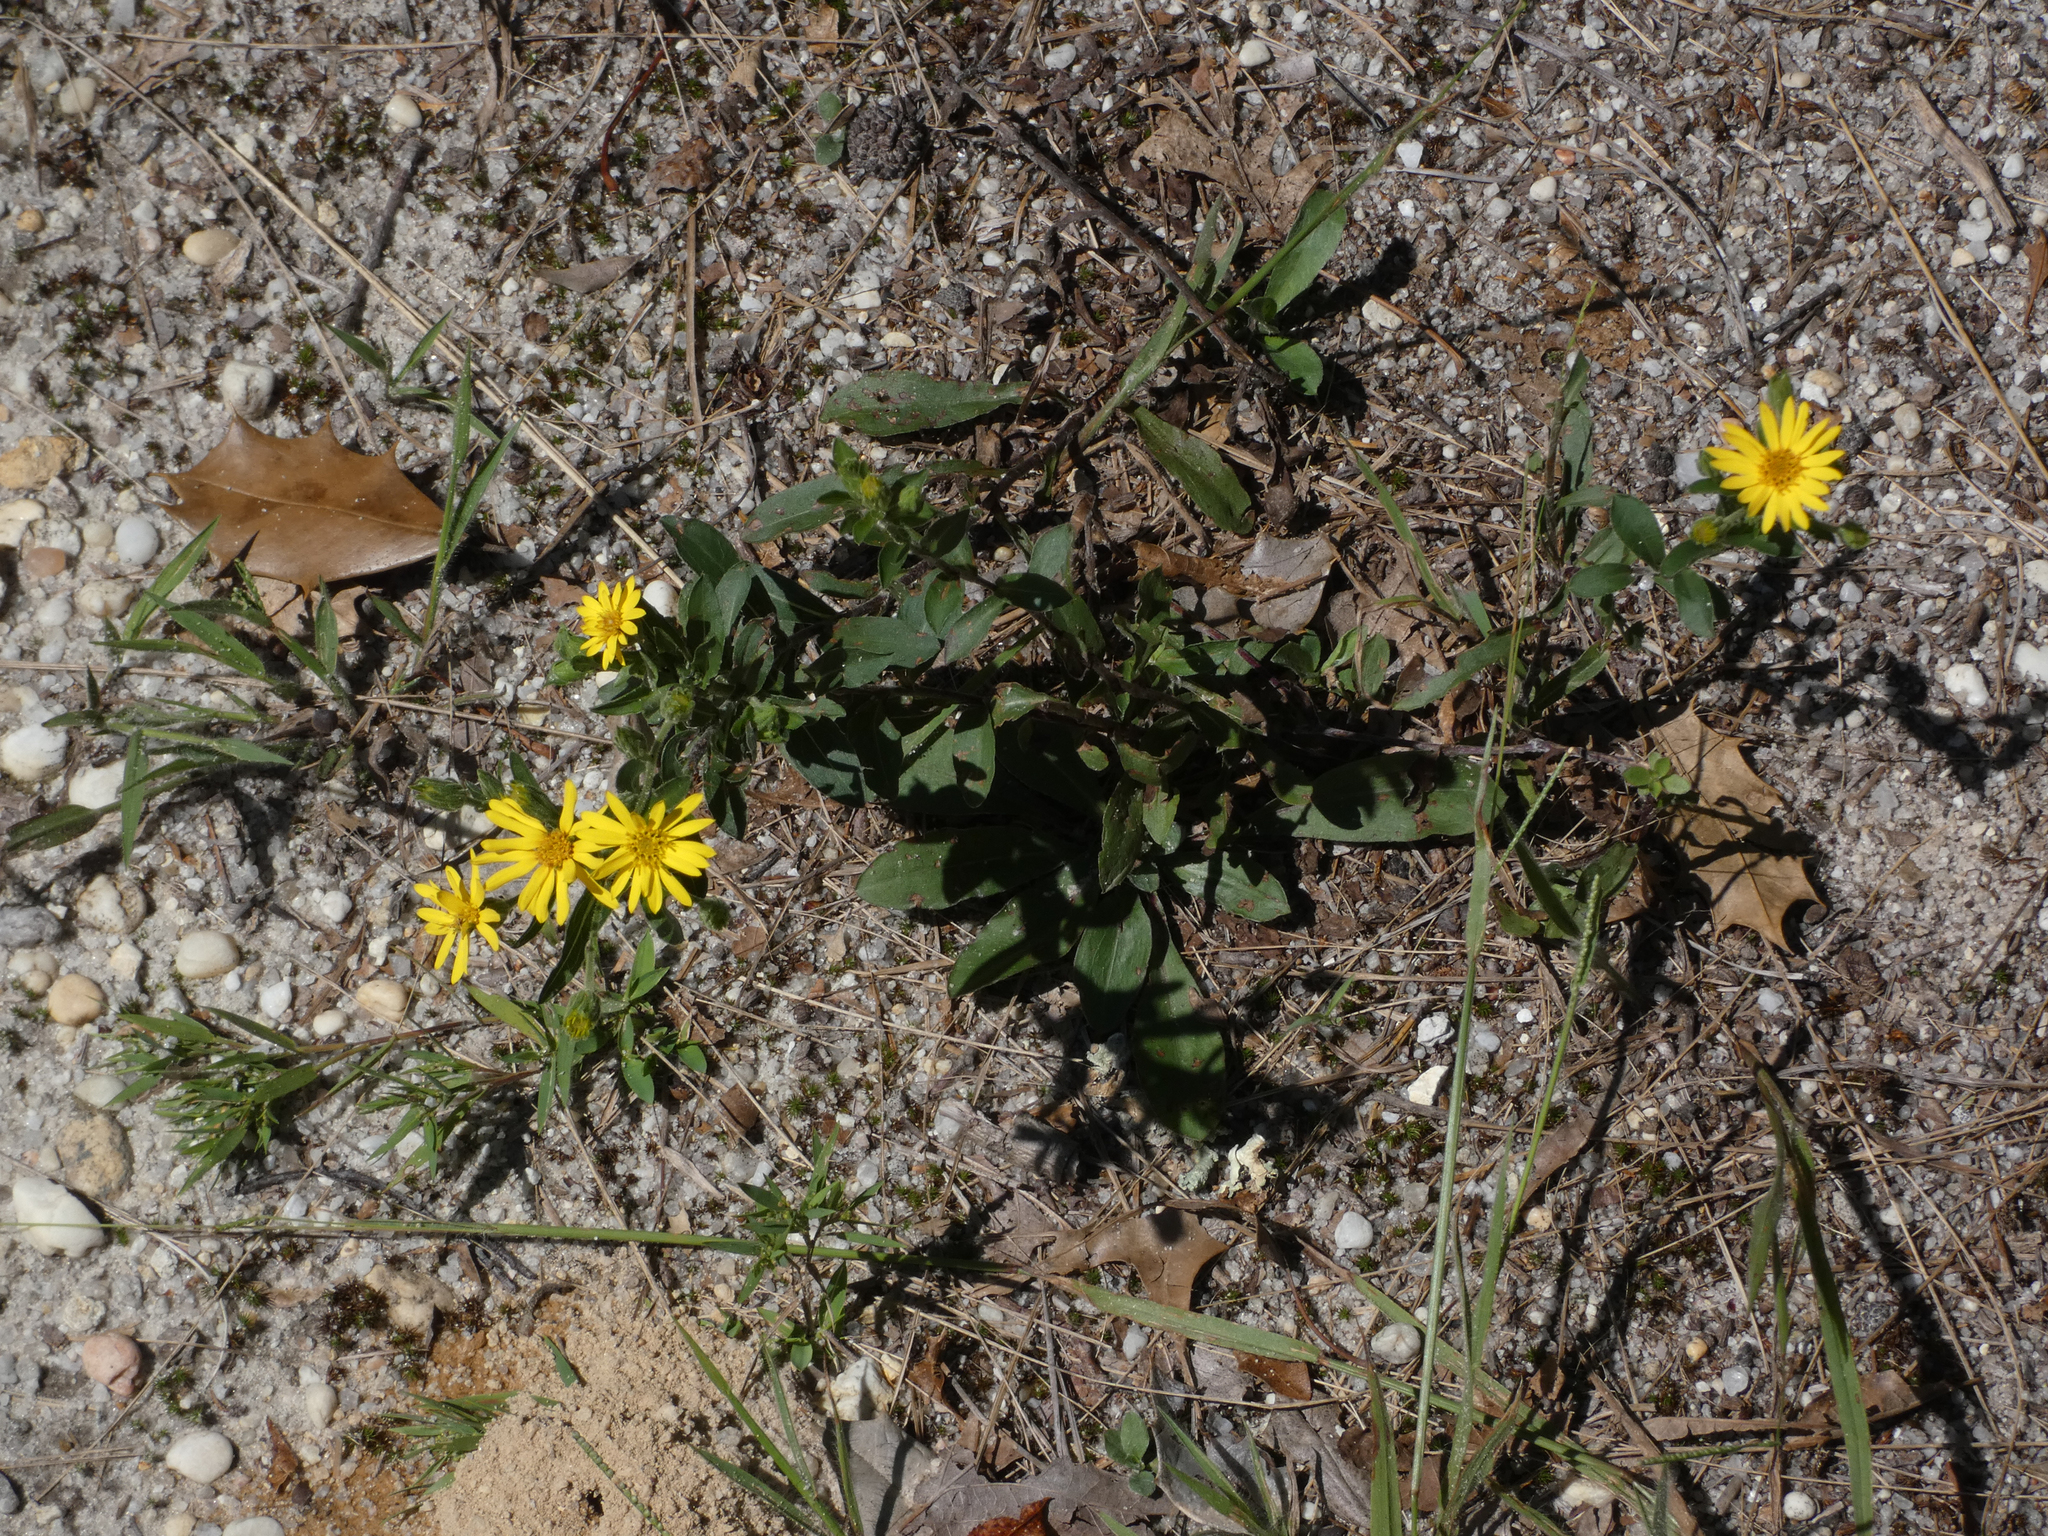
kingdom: Plantae
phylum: Tracheophyta
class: Magnoliopsida
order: Asterales
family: Asteraceae
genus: Chrysopsis
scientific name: Chrysopsis mariana
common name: Maryland golden-aster
